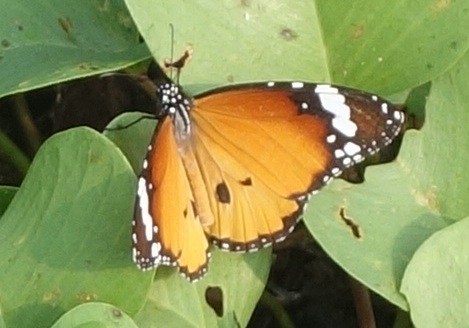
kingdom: Animalia
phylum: Arthropoda
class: Insecta
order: Lepidoptera
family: Nymphalidae
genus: Danaus
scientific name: Danaus chrysippus
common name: Plain tiger
